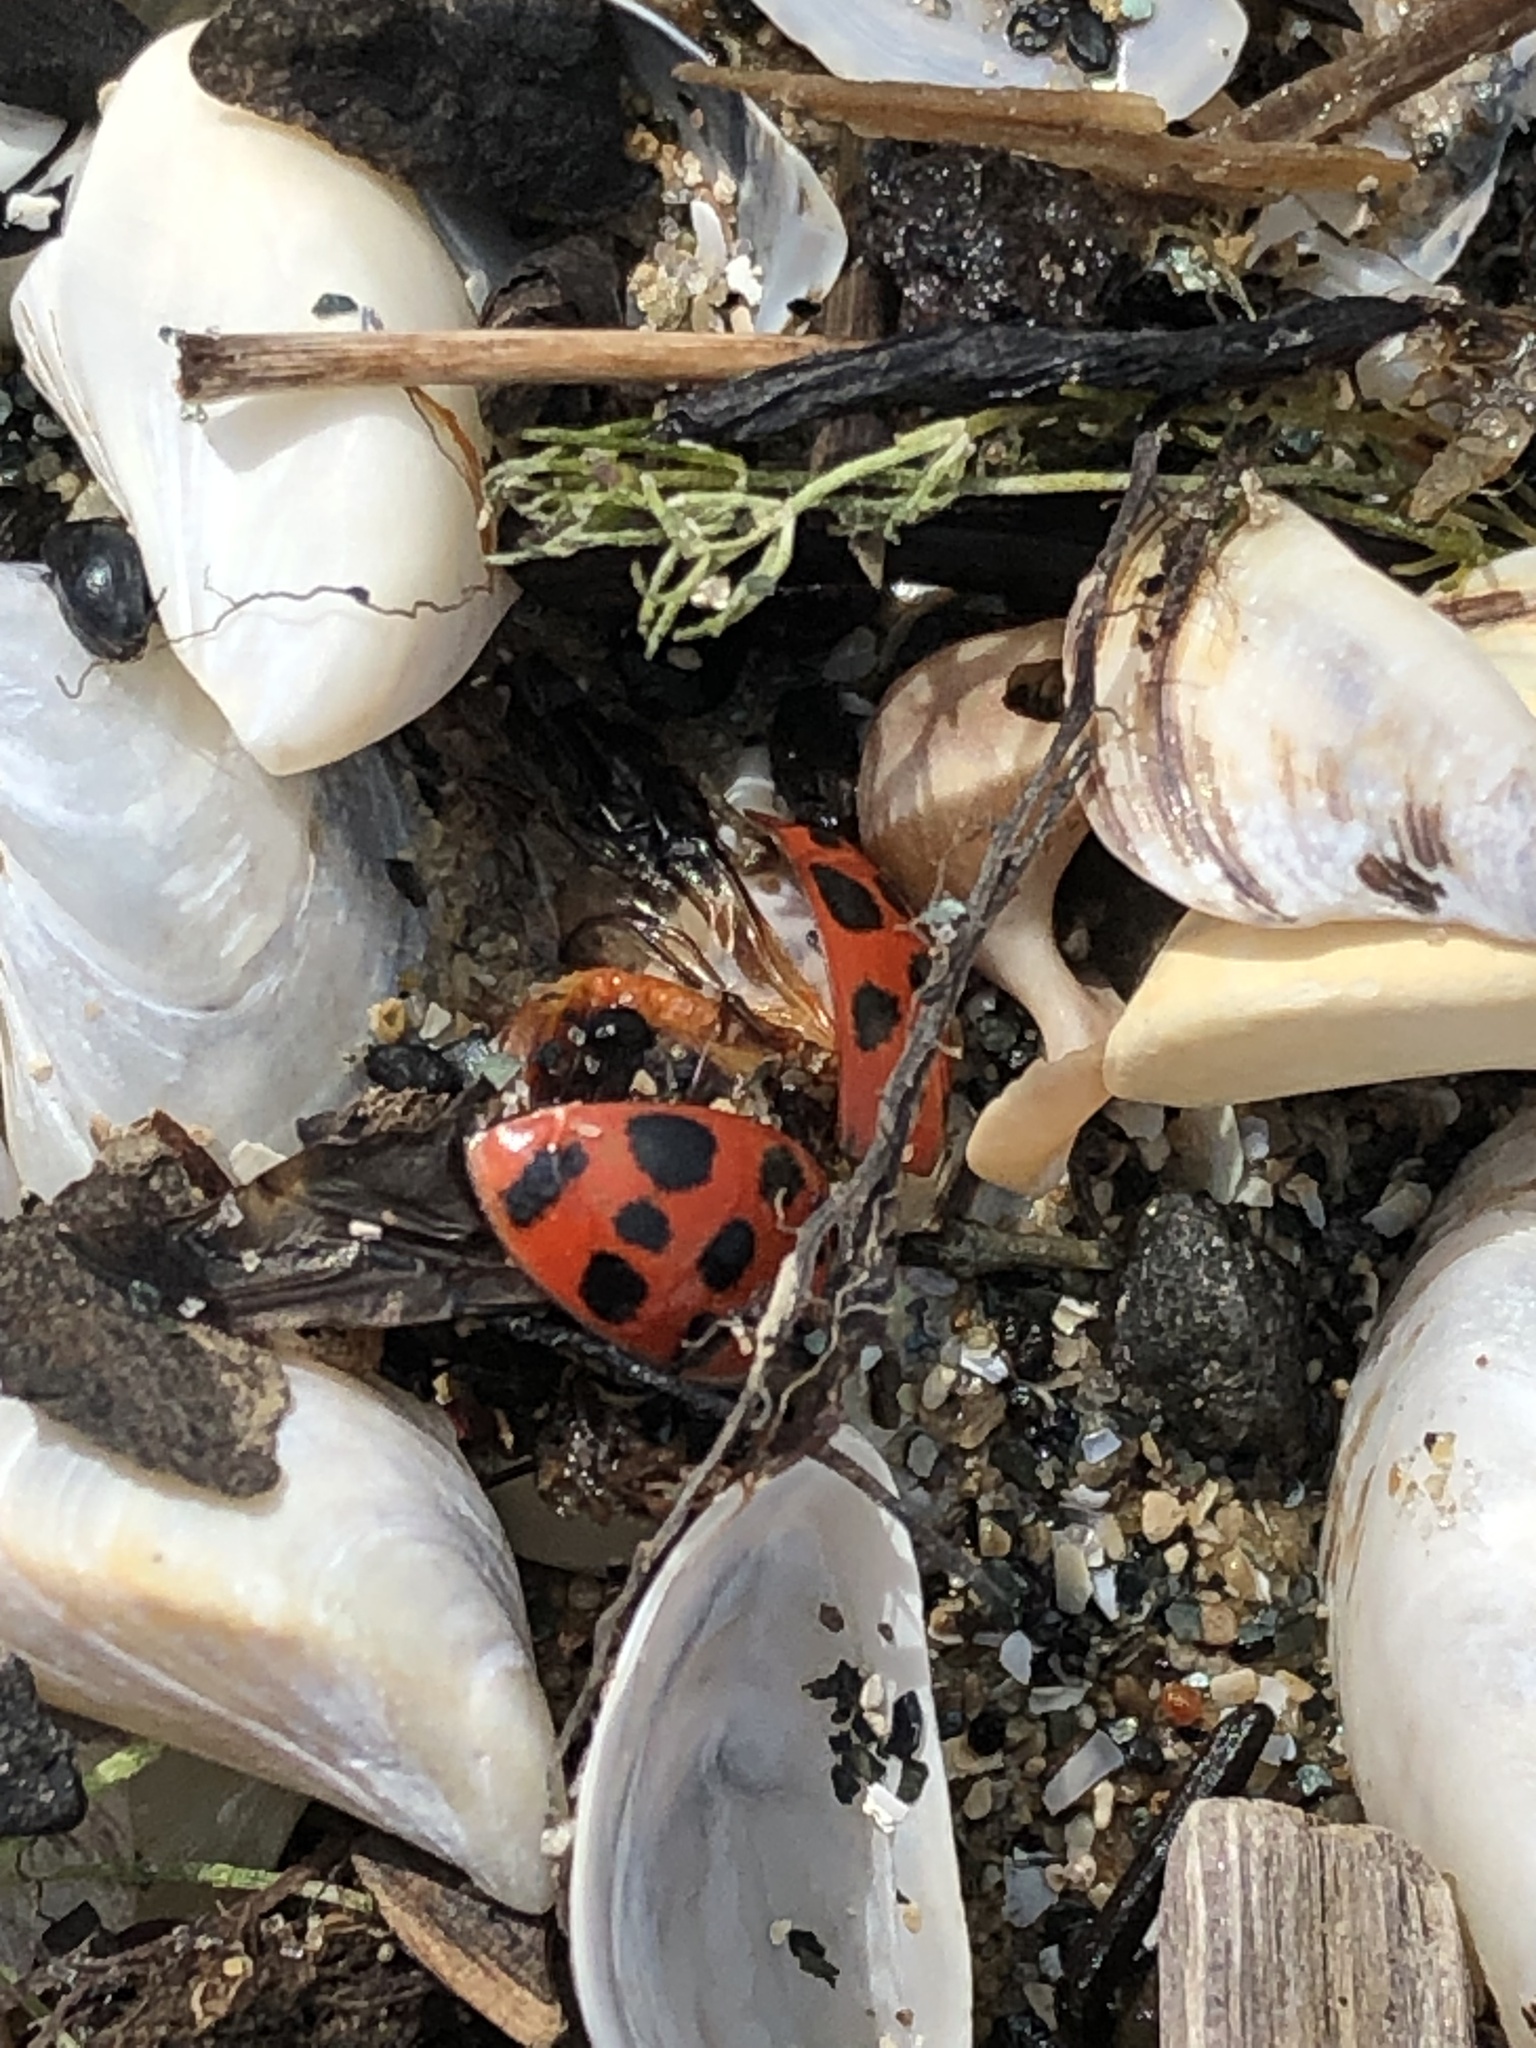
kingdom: Animalia
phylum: Arthropoda
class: Insecta
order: Coleoptera
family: Coccinellidae
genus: Harmonia
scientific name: Harmonia axyridis
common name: Harlequin ladybird
